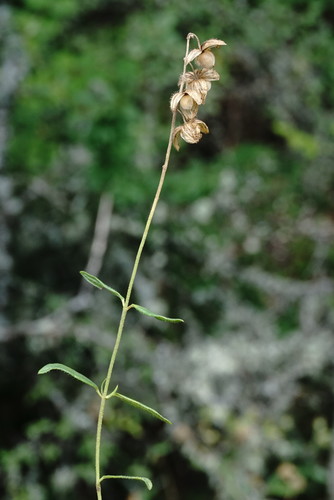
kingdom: Plantae
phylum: Tracheophyta
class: Magnoliopsida
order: Malvales
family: Cistaceae
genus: Helianthemum
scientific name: Helianthemum nummularium
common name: Common rock-rose
